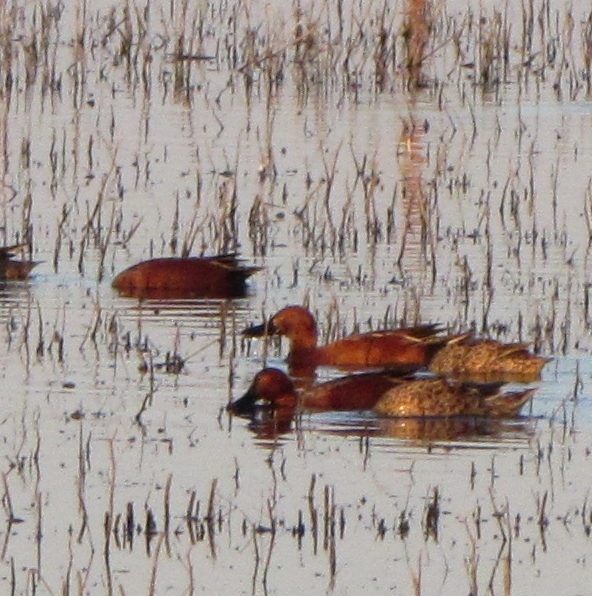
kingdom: Animalia
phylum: Chordata
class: Aves
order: Anseriformes
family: Anatidae
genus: Spatula
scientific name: Spatula cyanoptera
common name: Cinnamon teal
